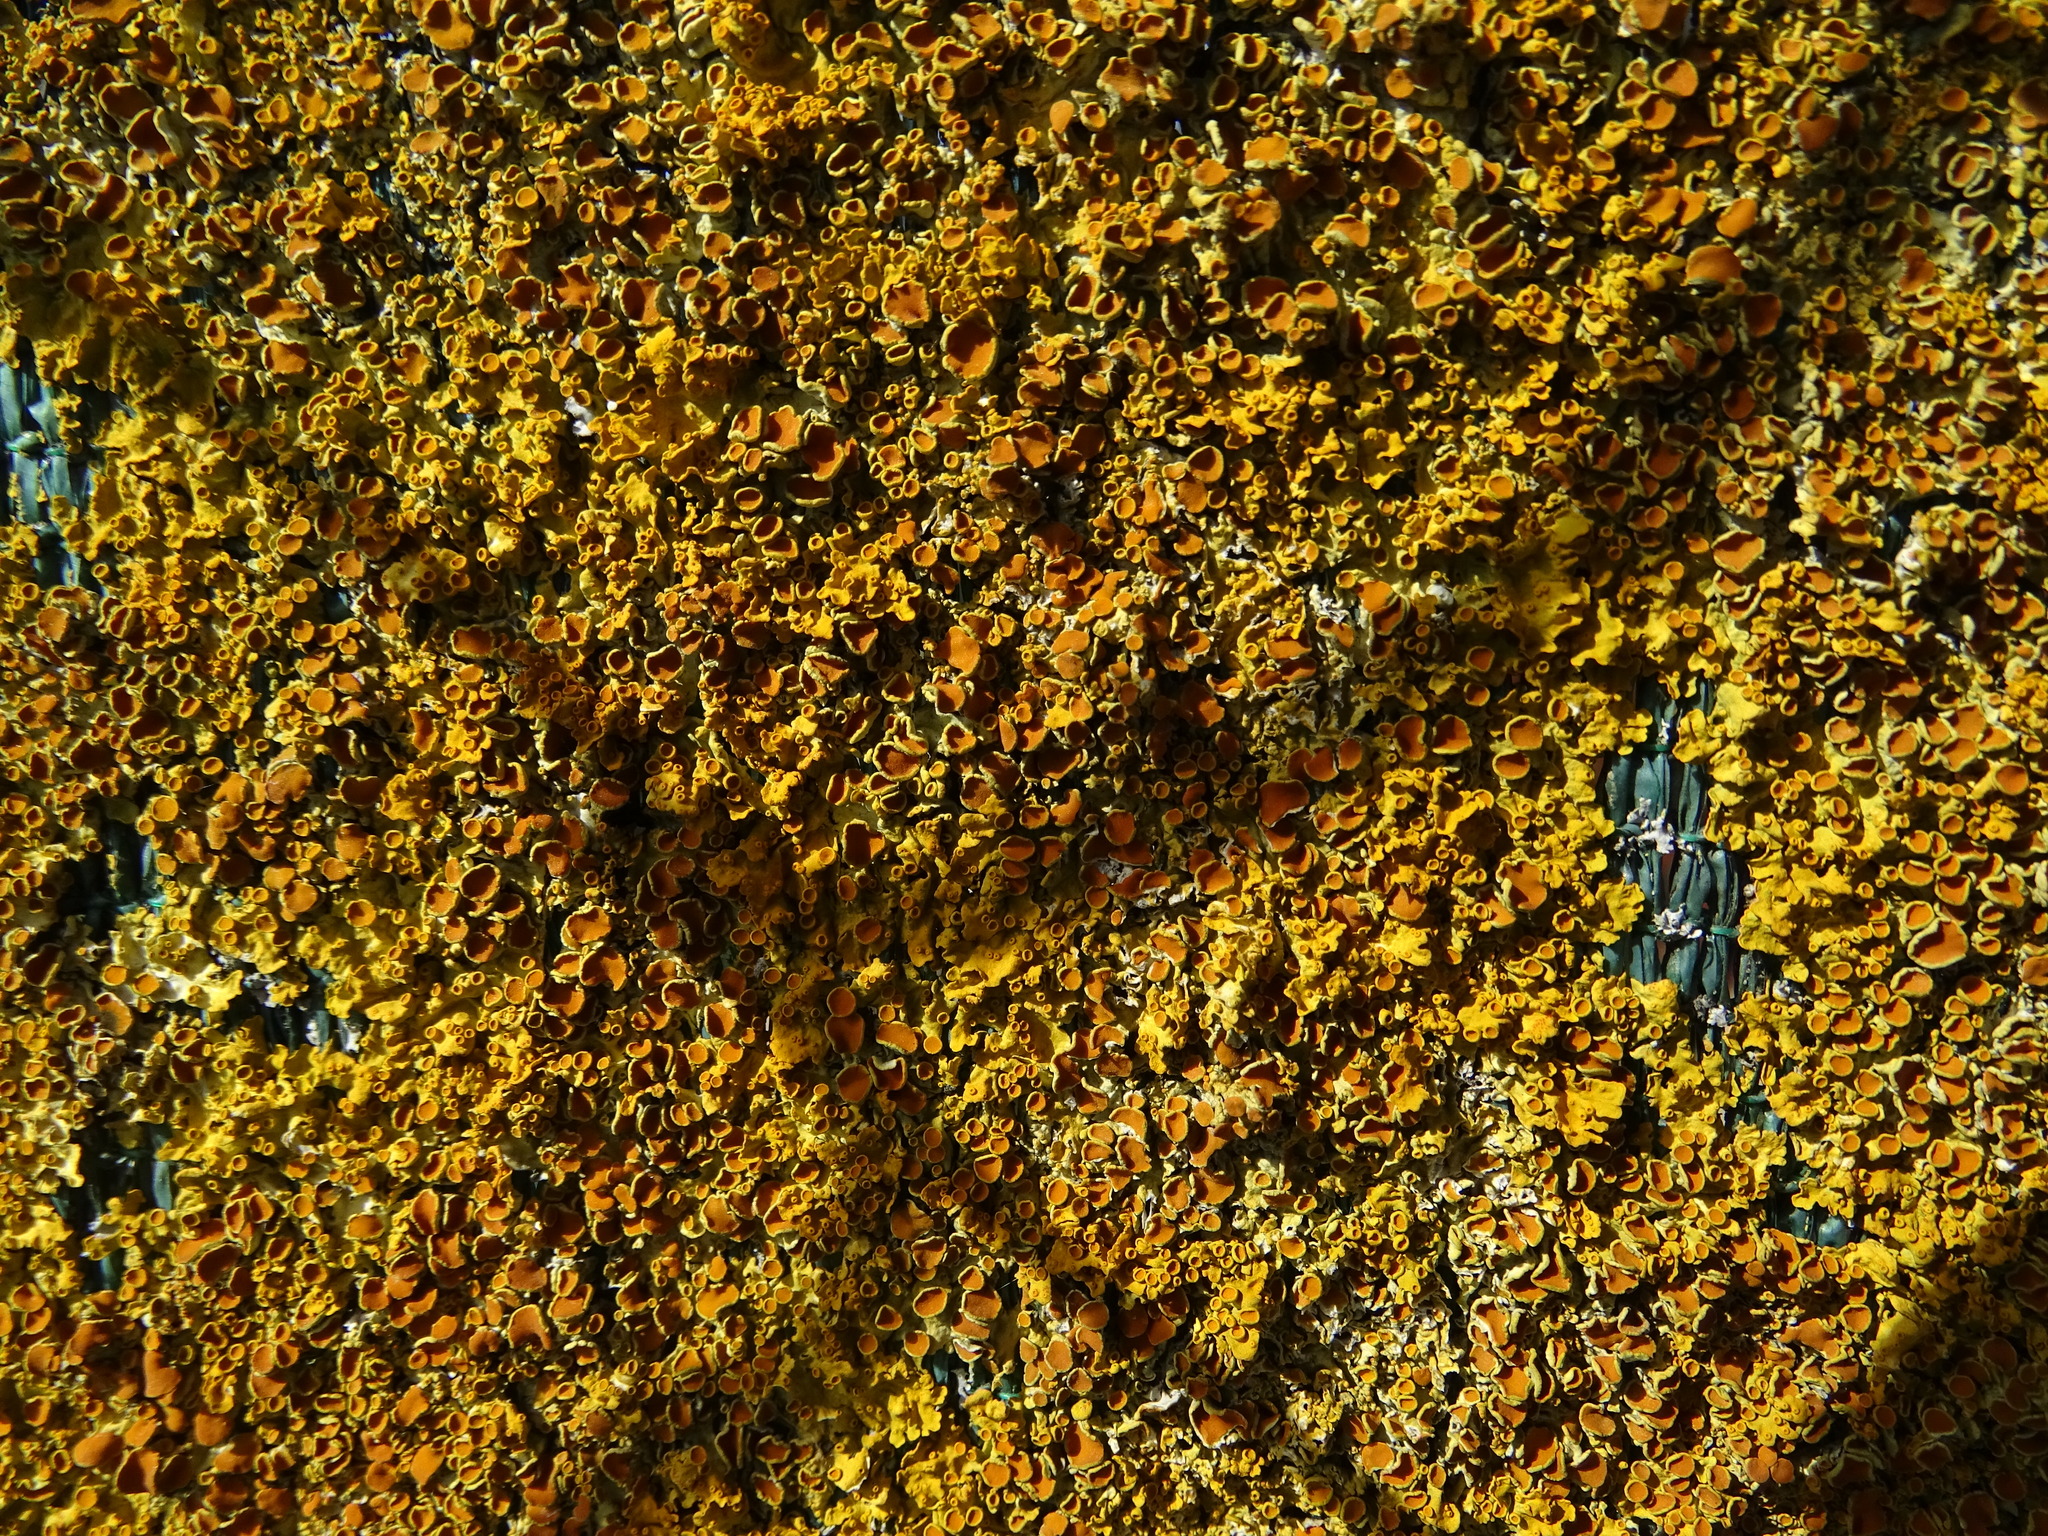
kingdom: Fungi
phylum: Ascomycota
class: Lecanoromycetes
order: Teloschistales
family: Teloschistaceae
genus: Xanthoria
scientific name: Xanthoria parietina
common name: Common orange lichen
